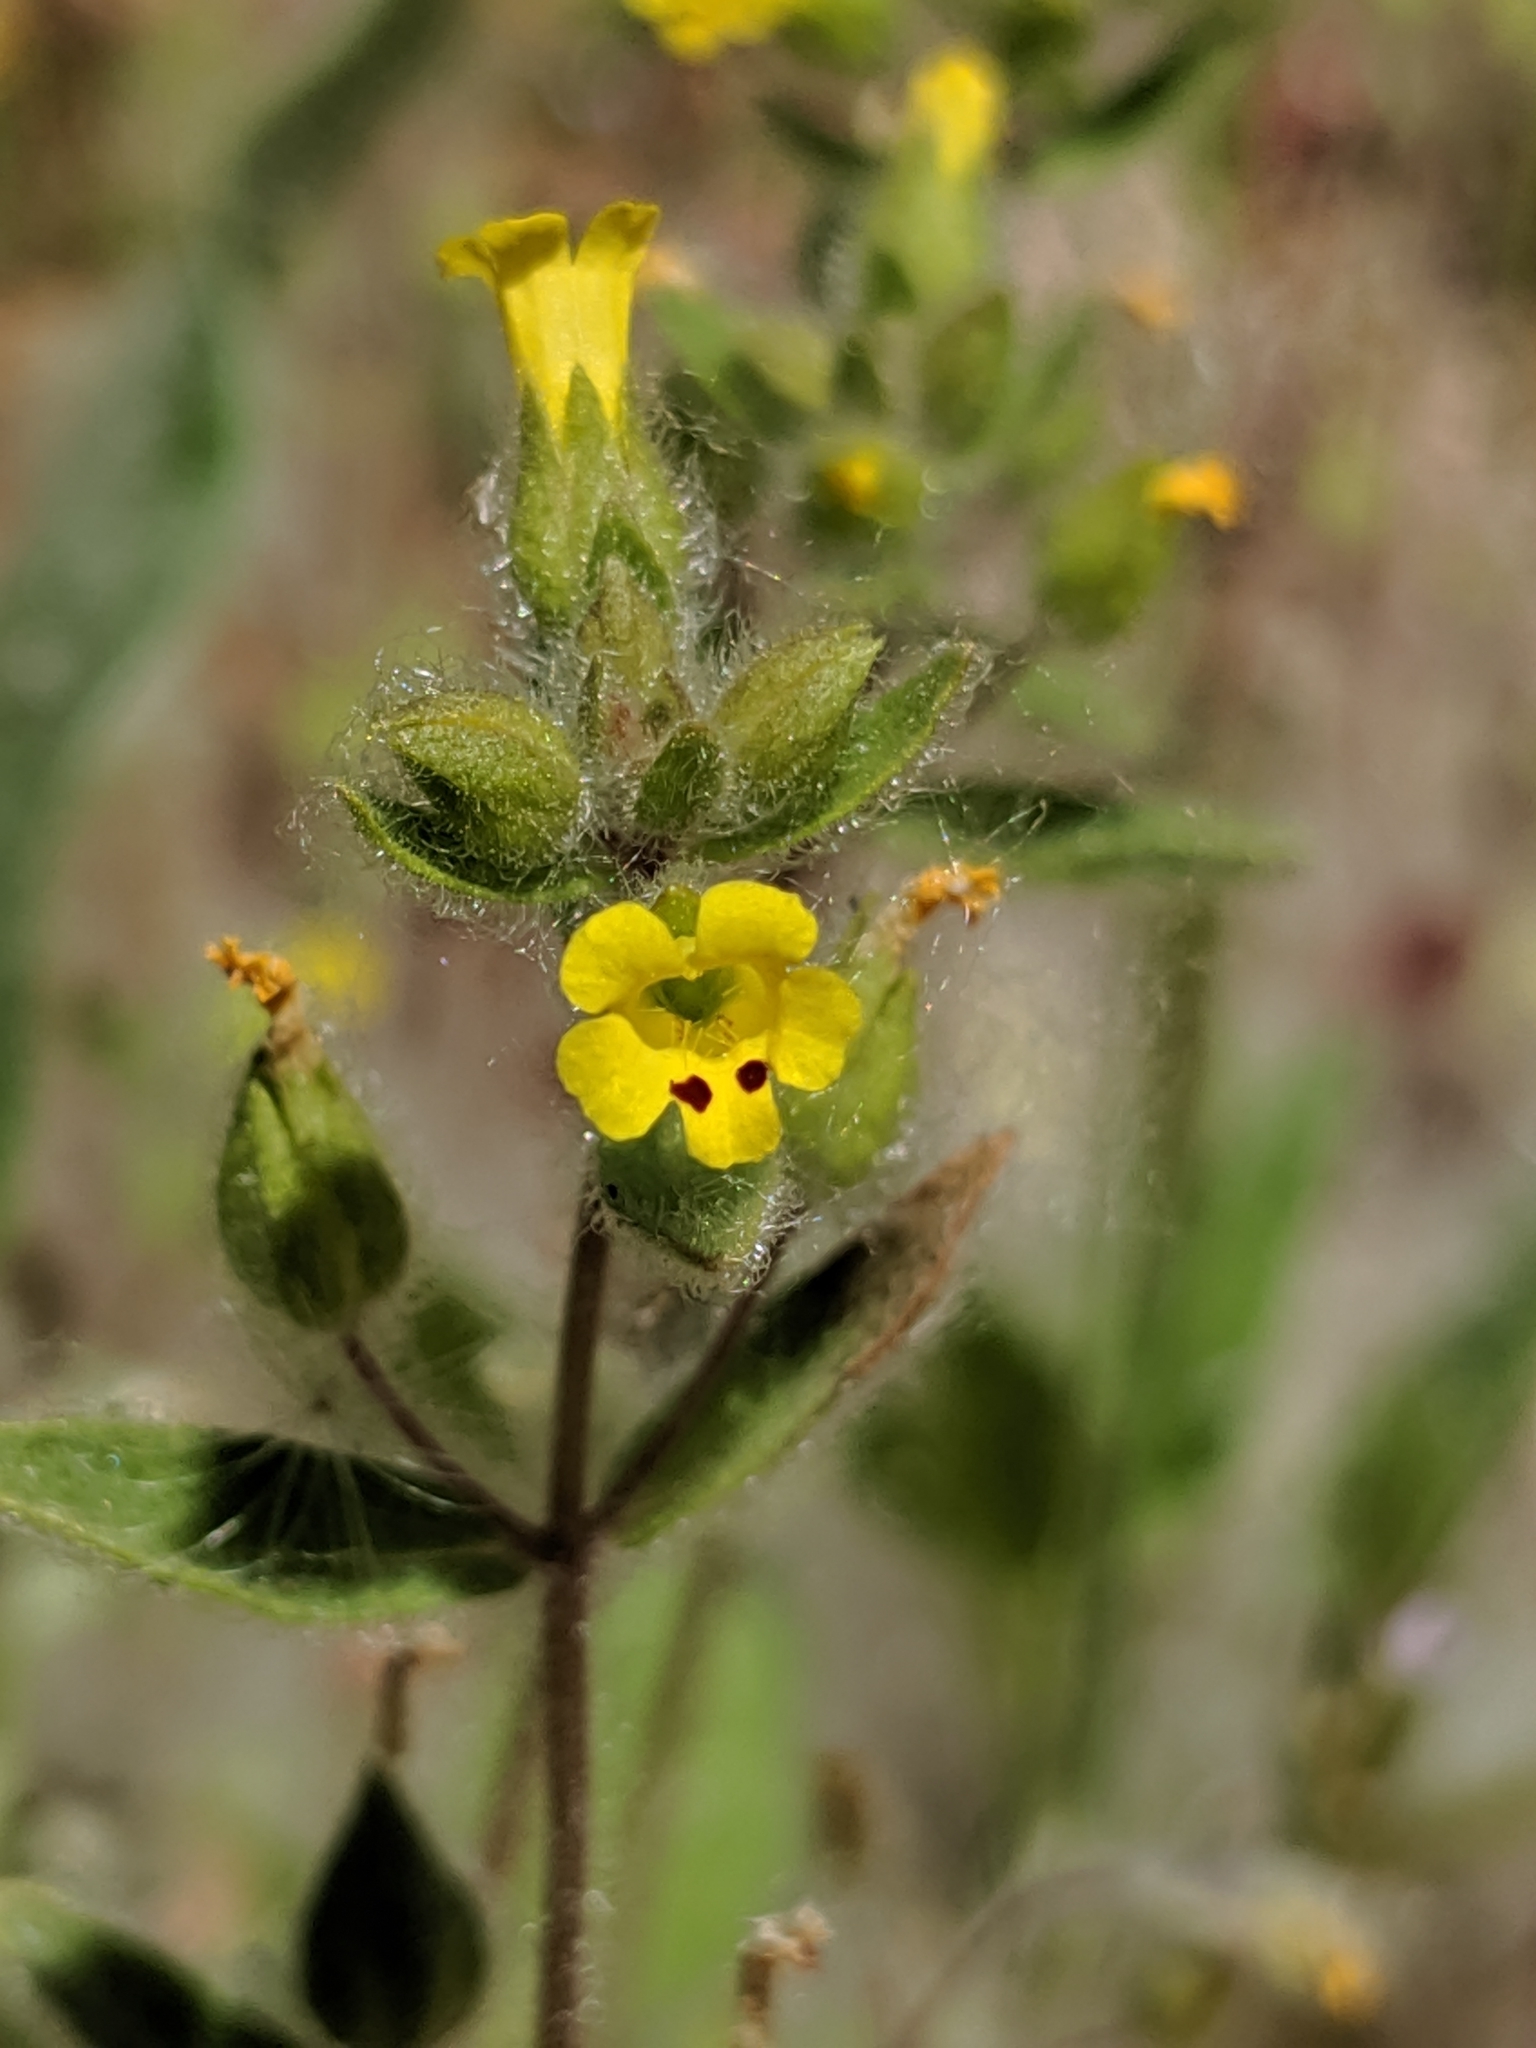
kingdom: Plantae
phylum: Tracheophyta
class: Magnoliopsida
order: Lamiales
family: Phrymaceae
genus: Mimetanthe
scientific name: Mimetanthe pilosa
